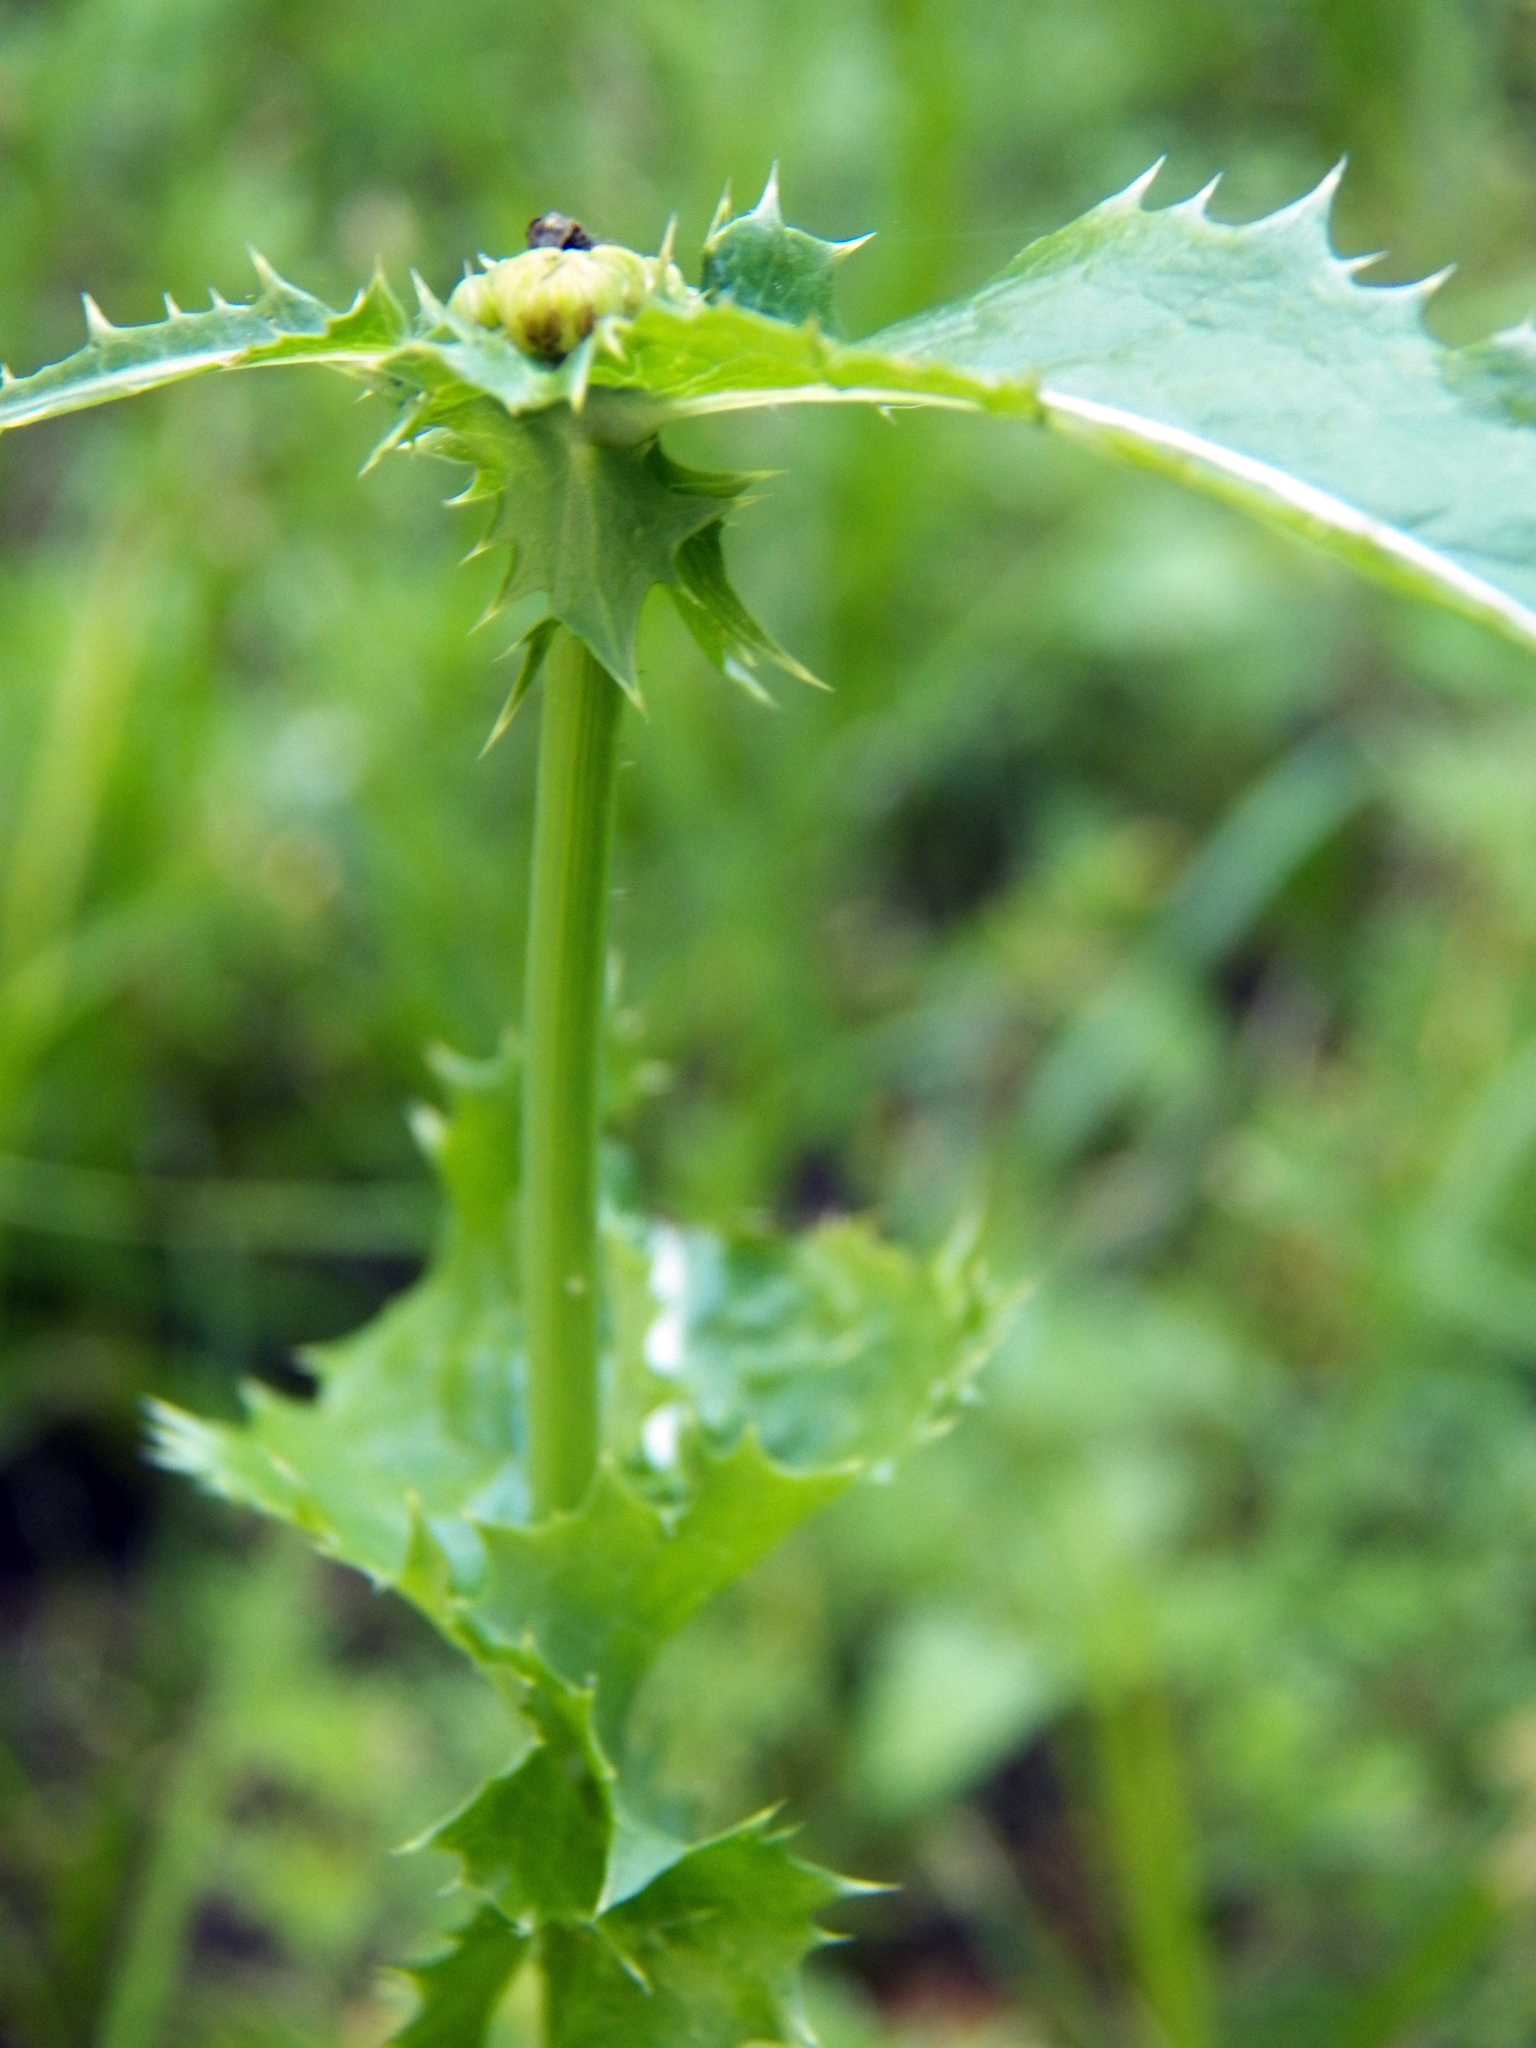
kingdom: Plantae
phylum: Tracheophyta
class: Magnoliopsida
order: Asterales
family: Asteraceae
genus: Sonchus
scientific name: Sonchus asper
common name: Prickly sow-thistle
